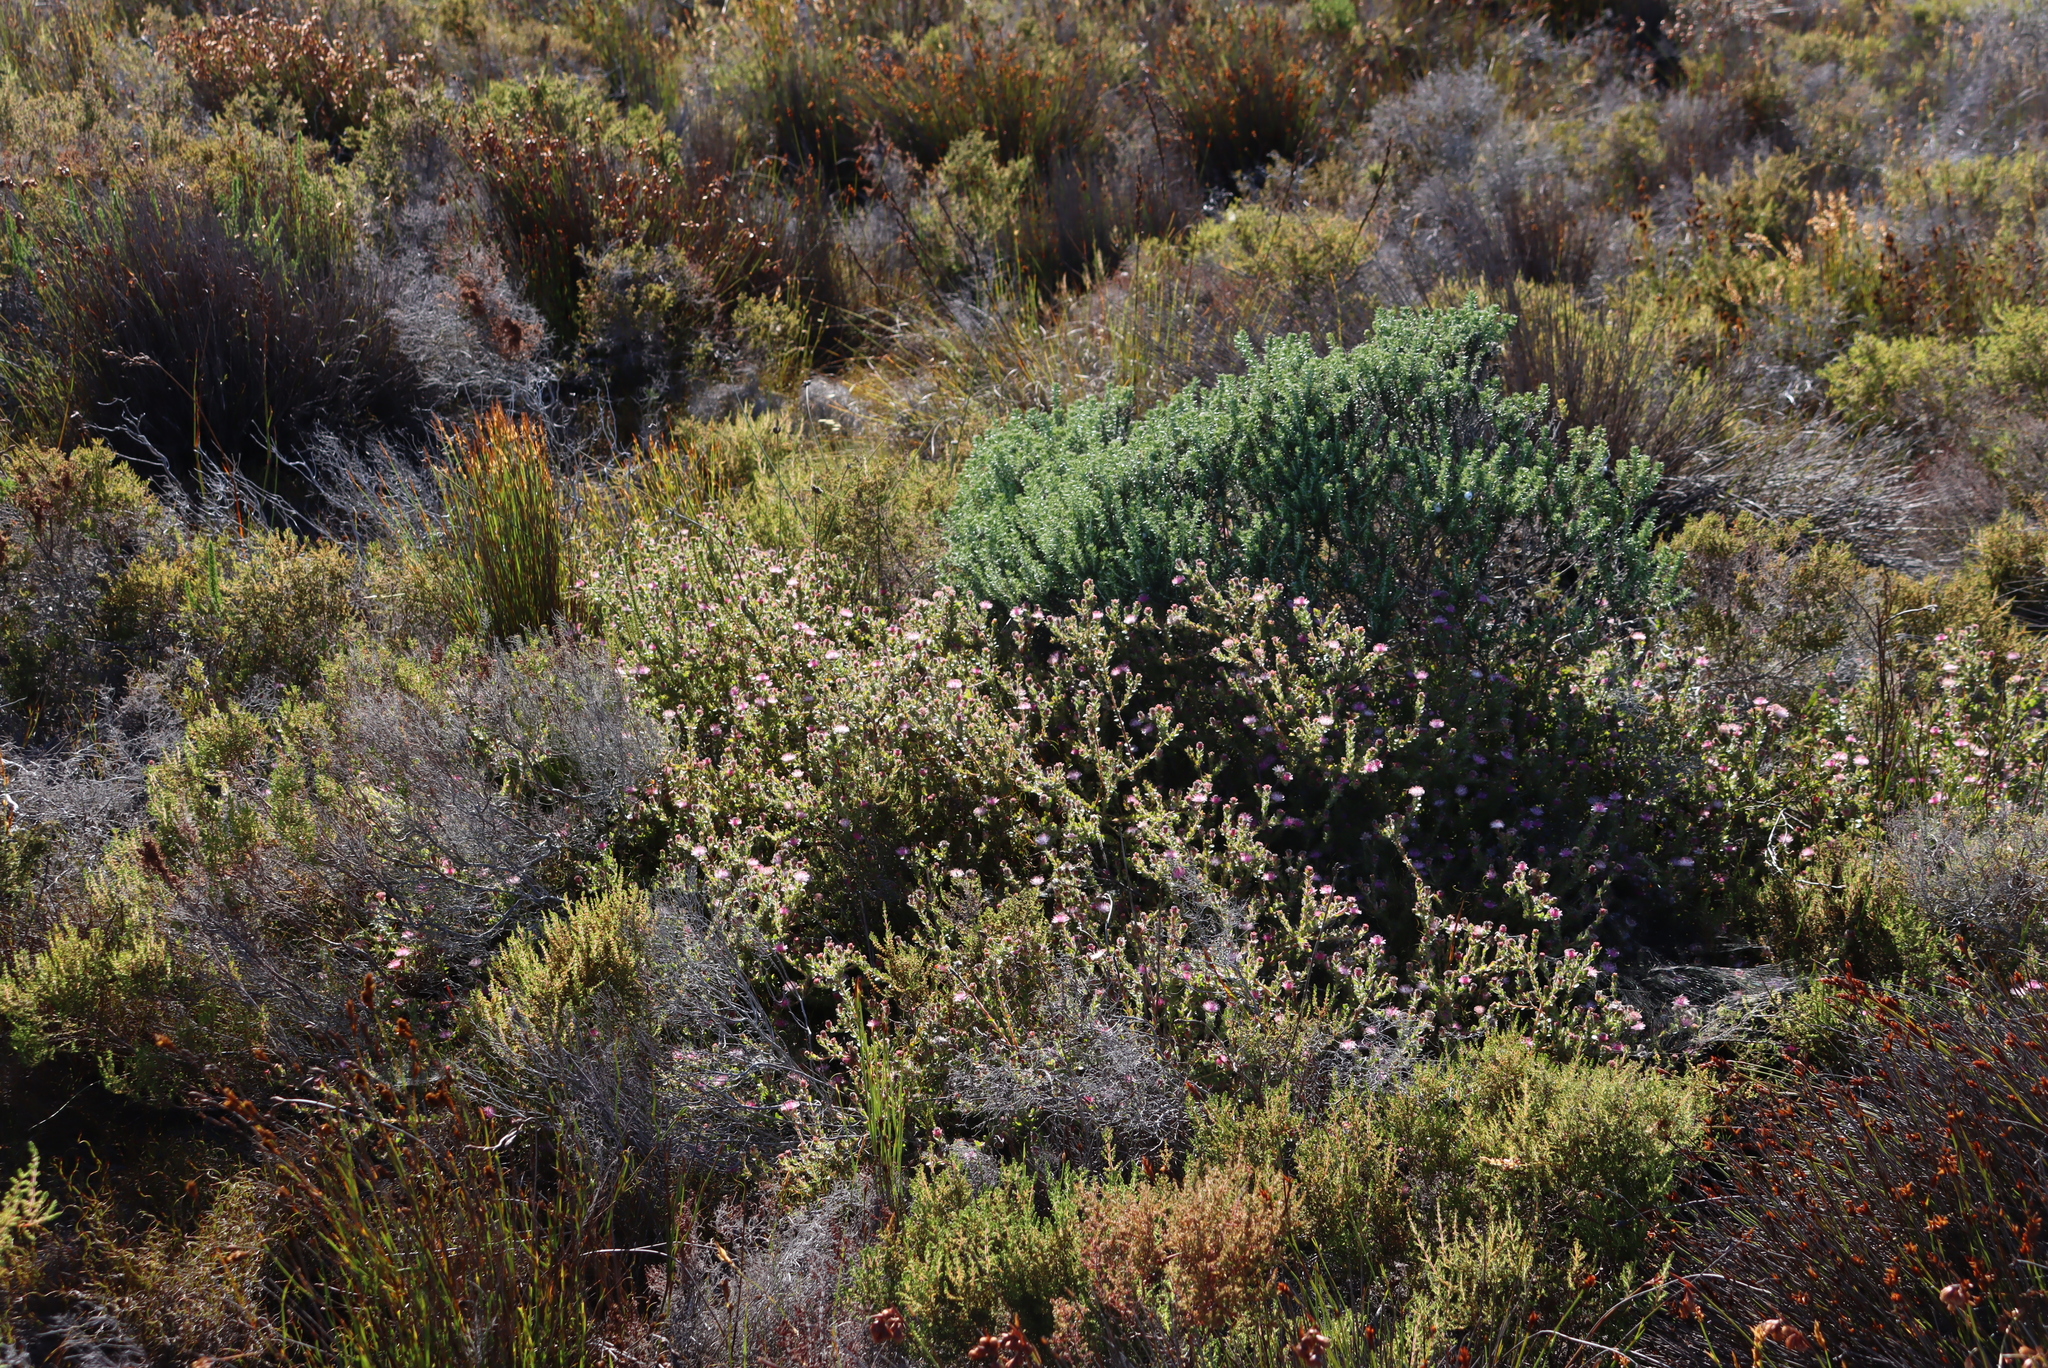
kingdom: Plantae
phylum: Tracheophyta
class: Magnoliopsida
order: Proteales
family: Proteaceae
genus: Diastella
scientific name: Diastella divaricata
